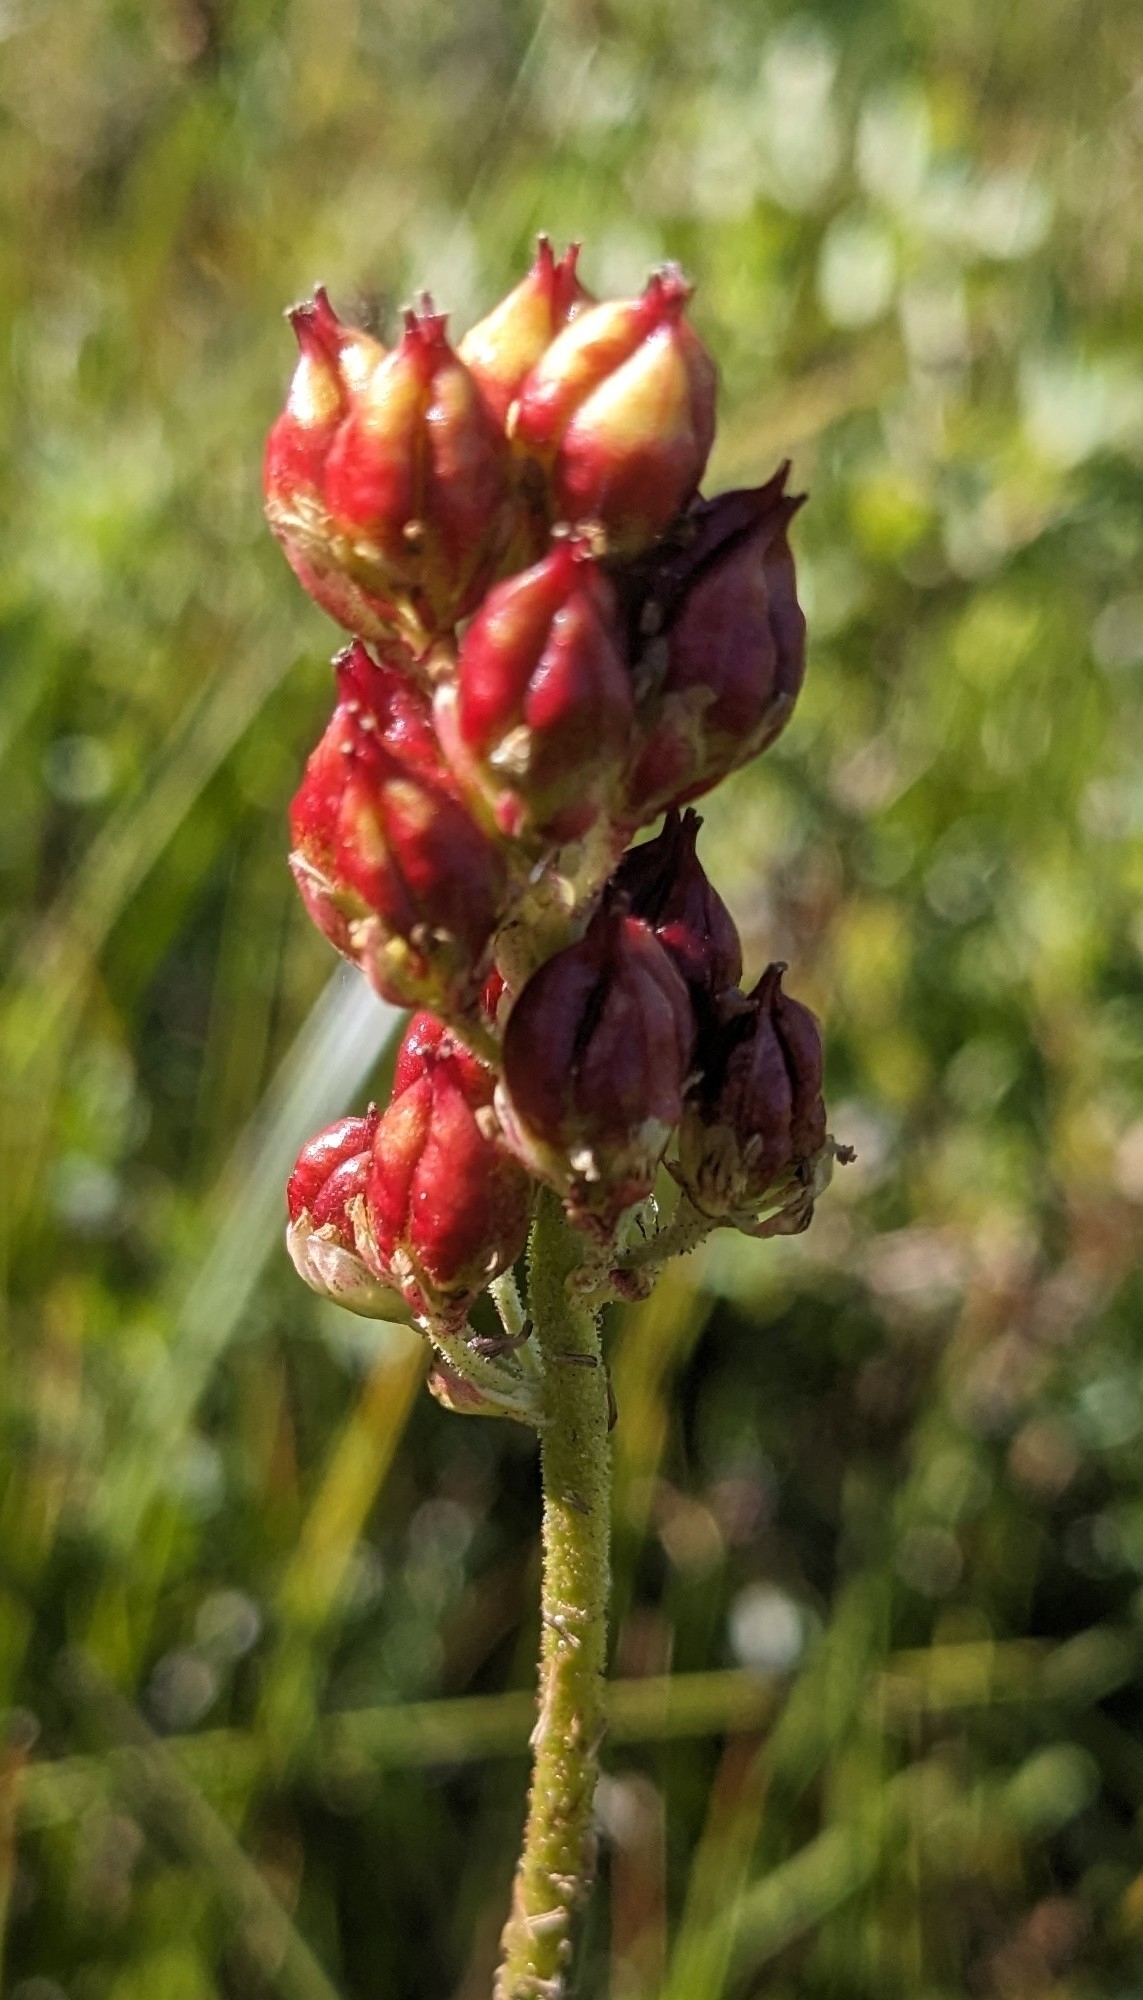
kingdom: Plantae
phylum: Tracheophyta
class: Liliopsida
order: Alismatales
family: Tofieldiaceae
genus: Triantha
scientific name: Triantha occidentalis
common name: Western false asphodel
